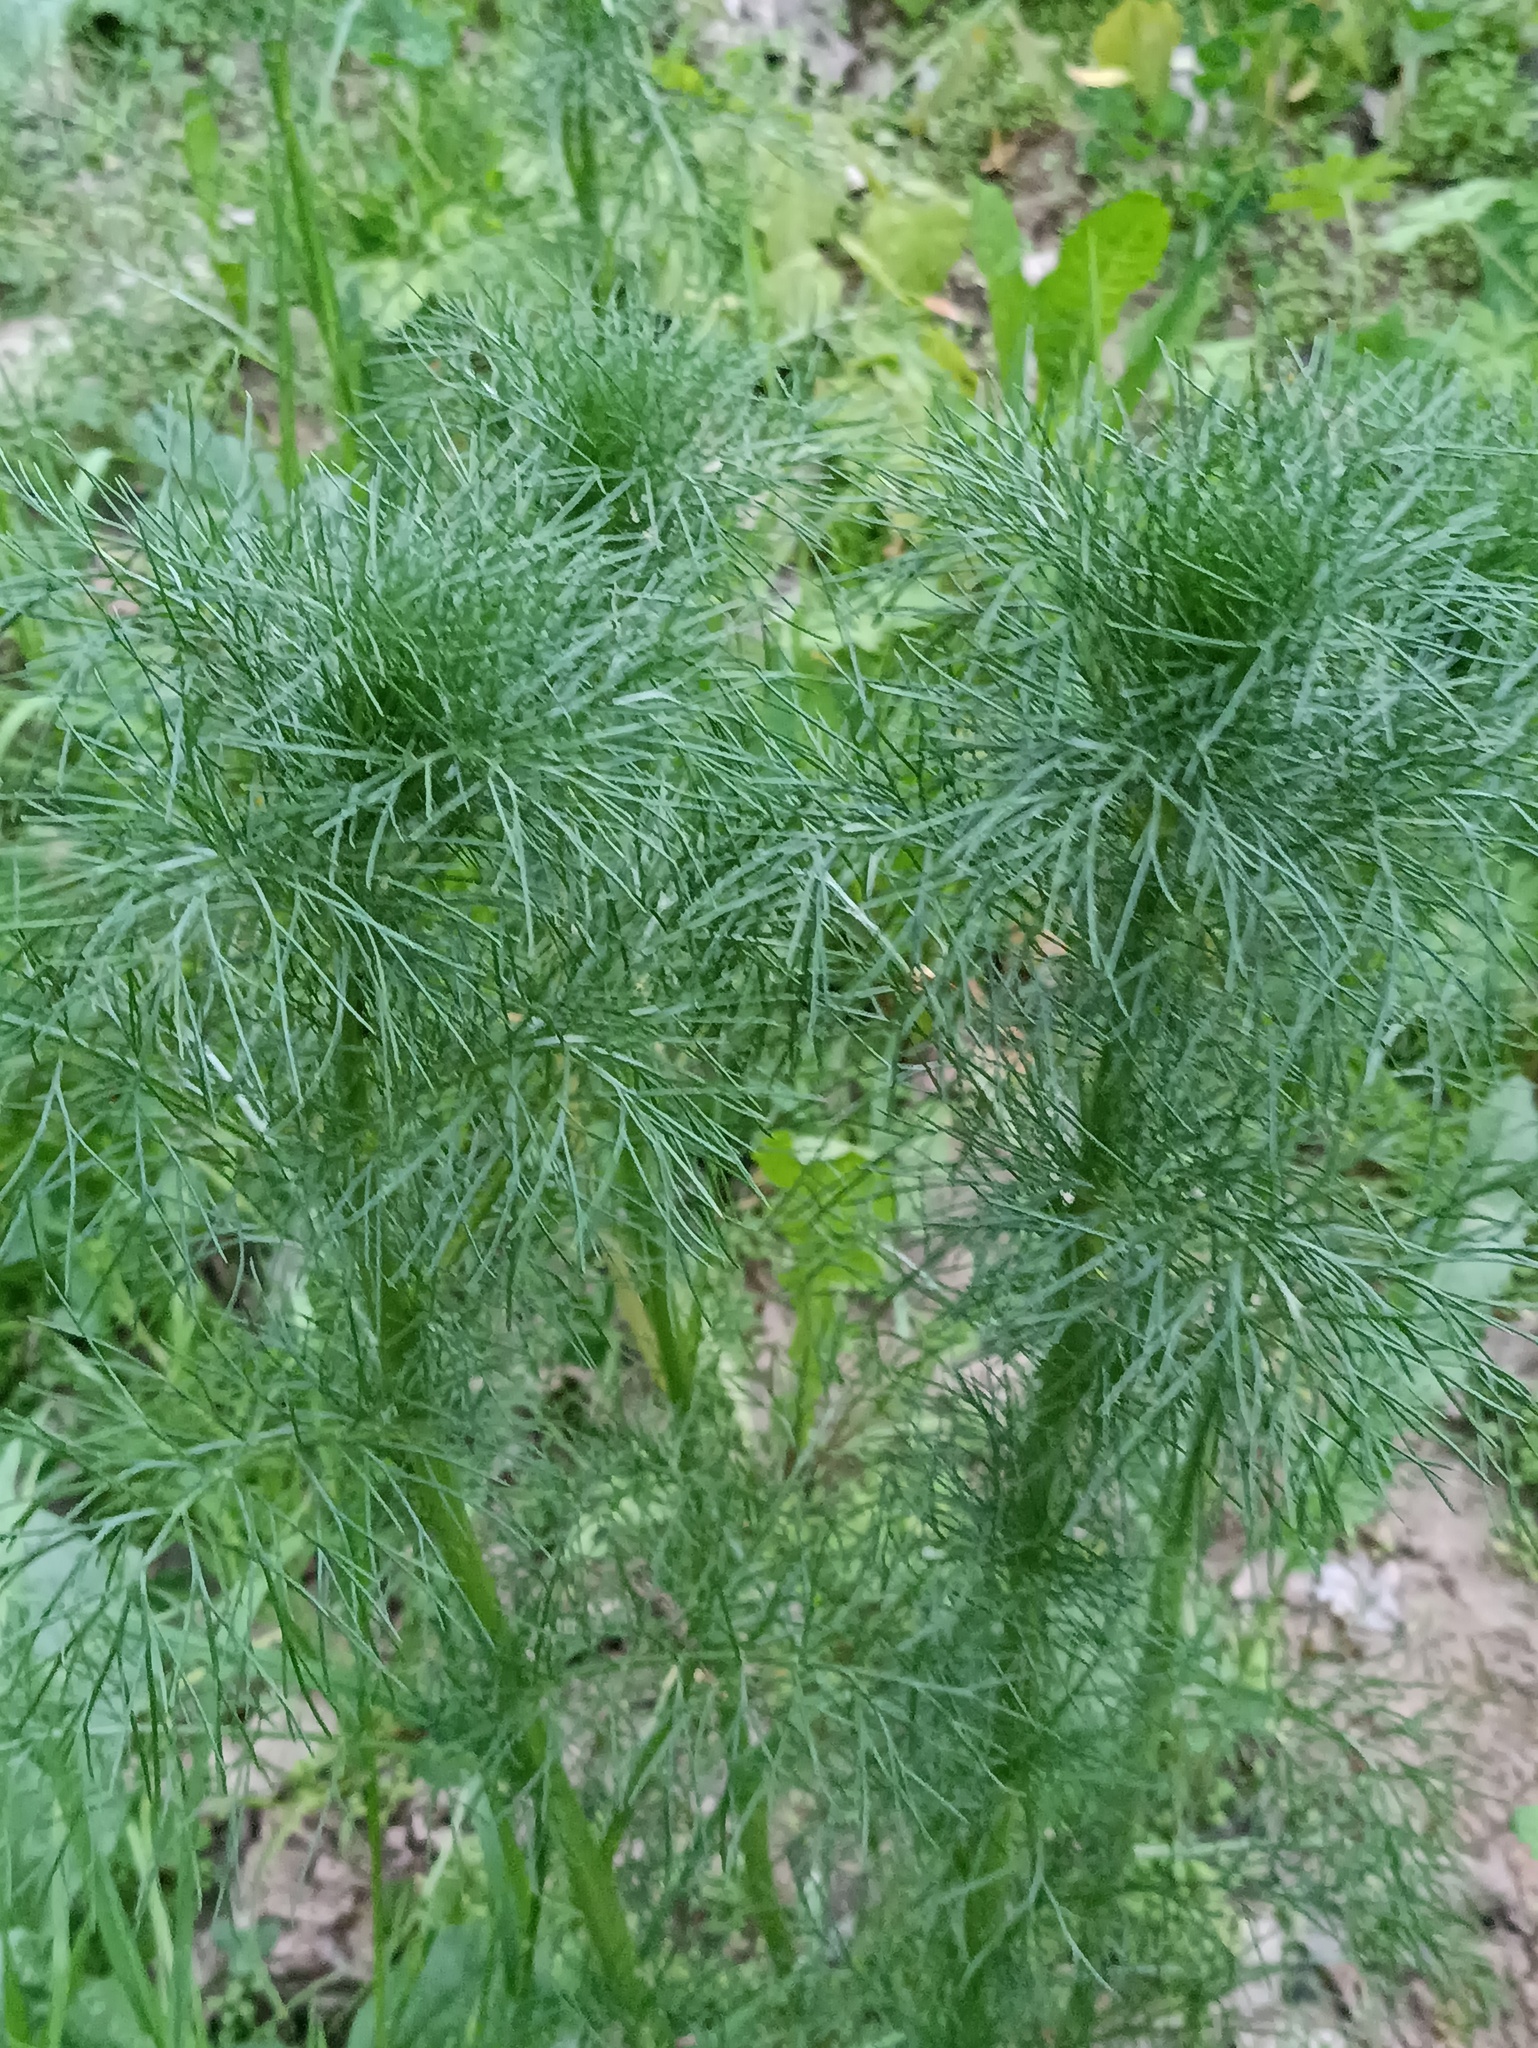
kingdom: Plantae
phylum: Tracheophyta
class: Magnoliopsida
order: Asterales
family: Asteraceae
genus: Tripleurospermum
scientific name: Tripleurospermum inodorum
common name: Scentless mayweed
